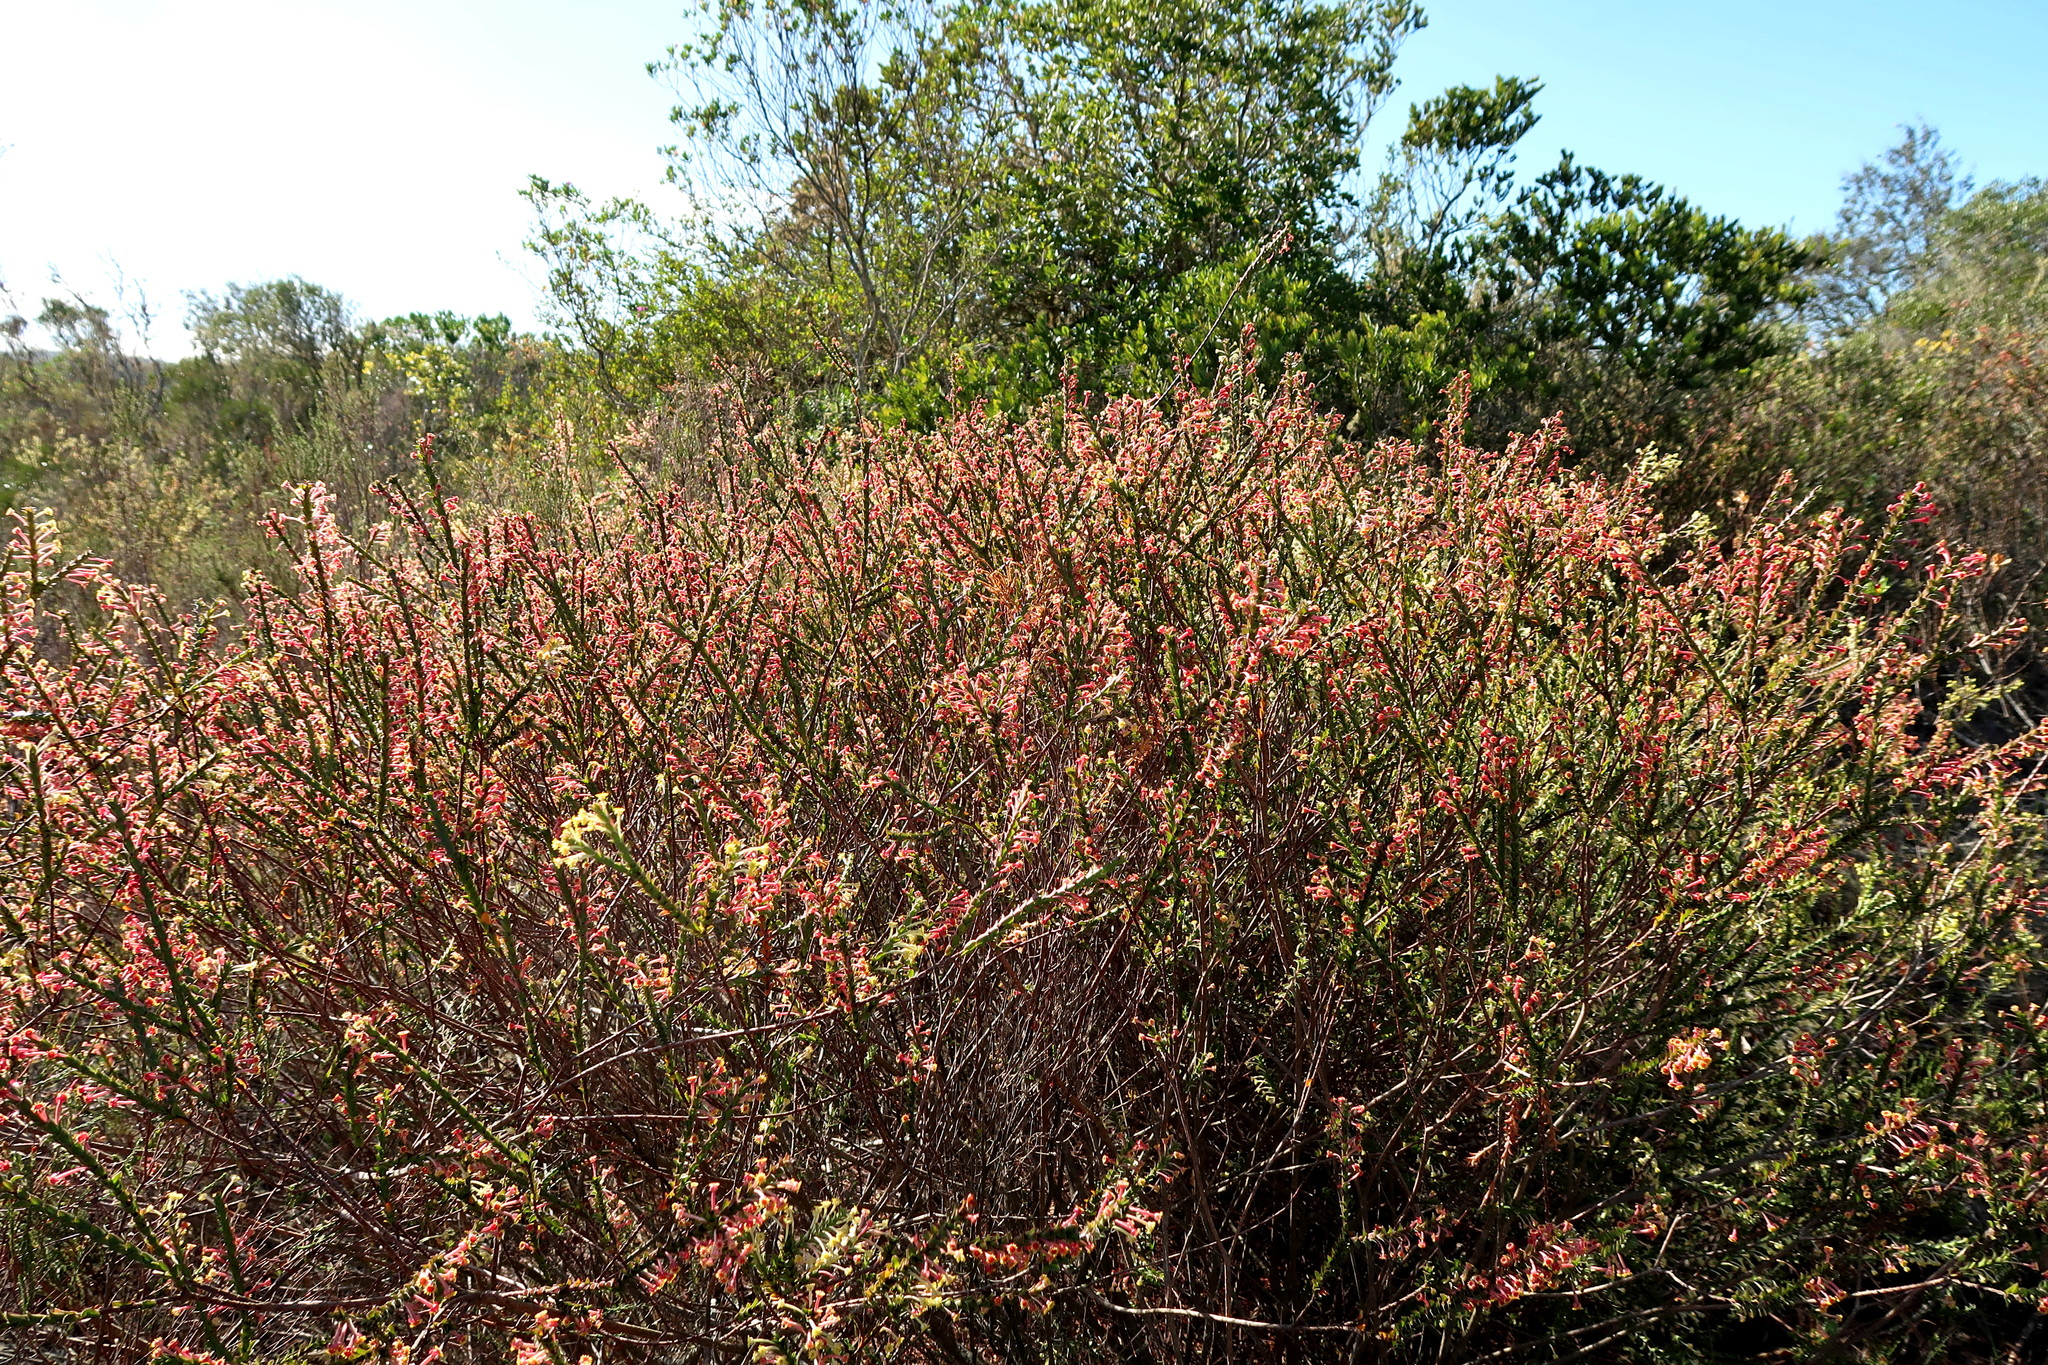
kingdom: Plantae
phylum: Tracheophyta
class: Magnoliopsida
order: Malvales
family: Thymelaeaceae
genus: Struthiola
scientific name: Struthiola argentea
